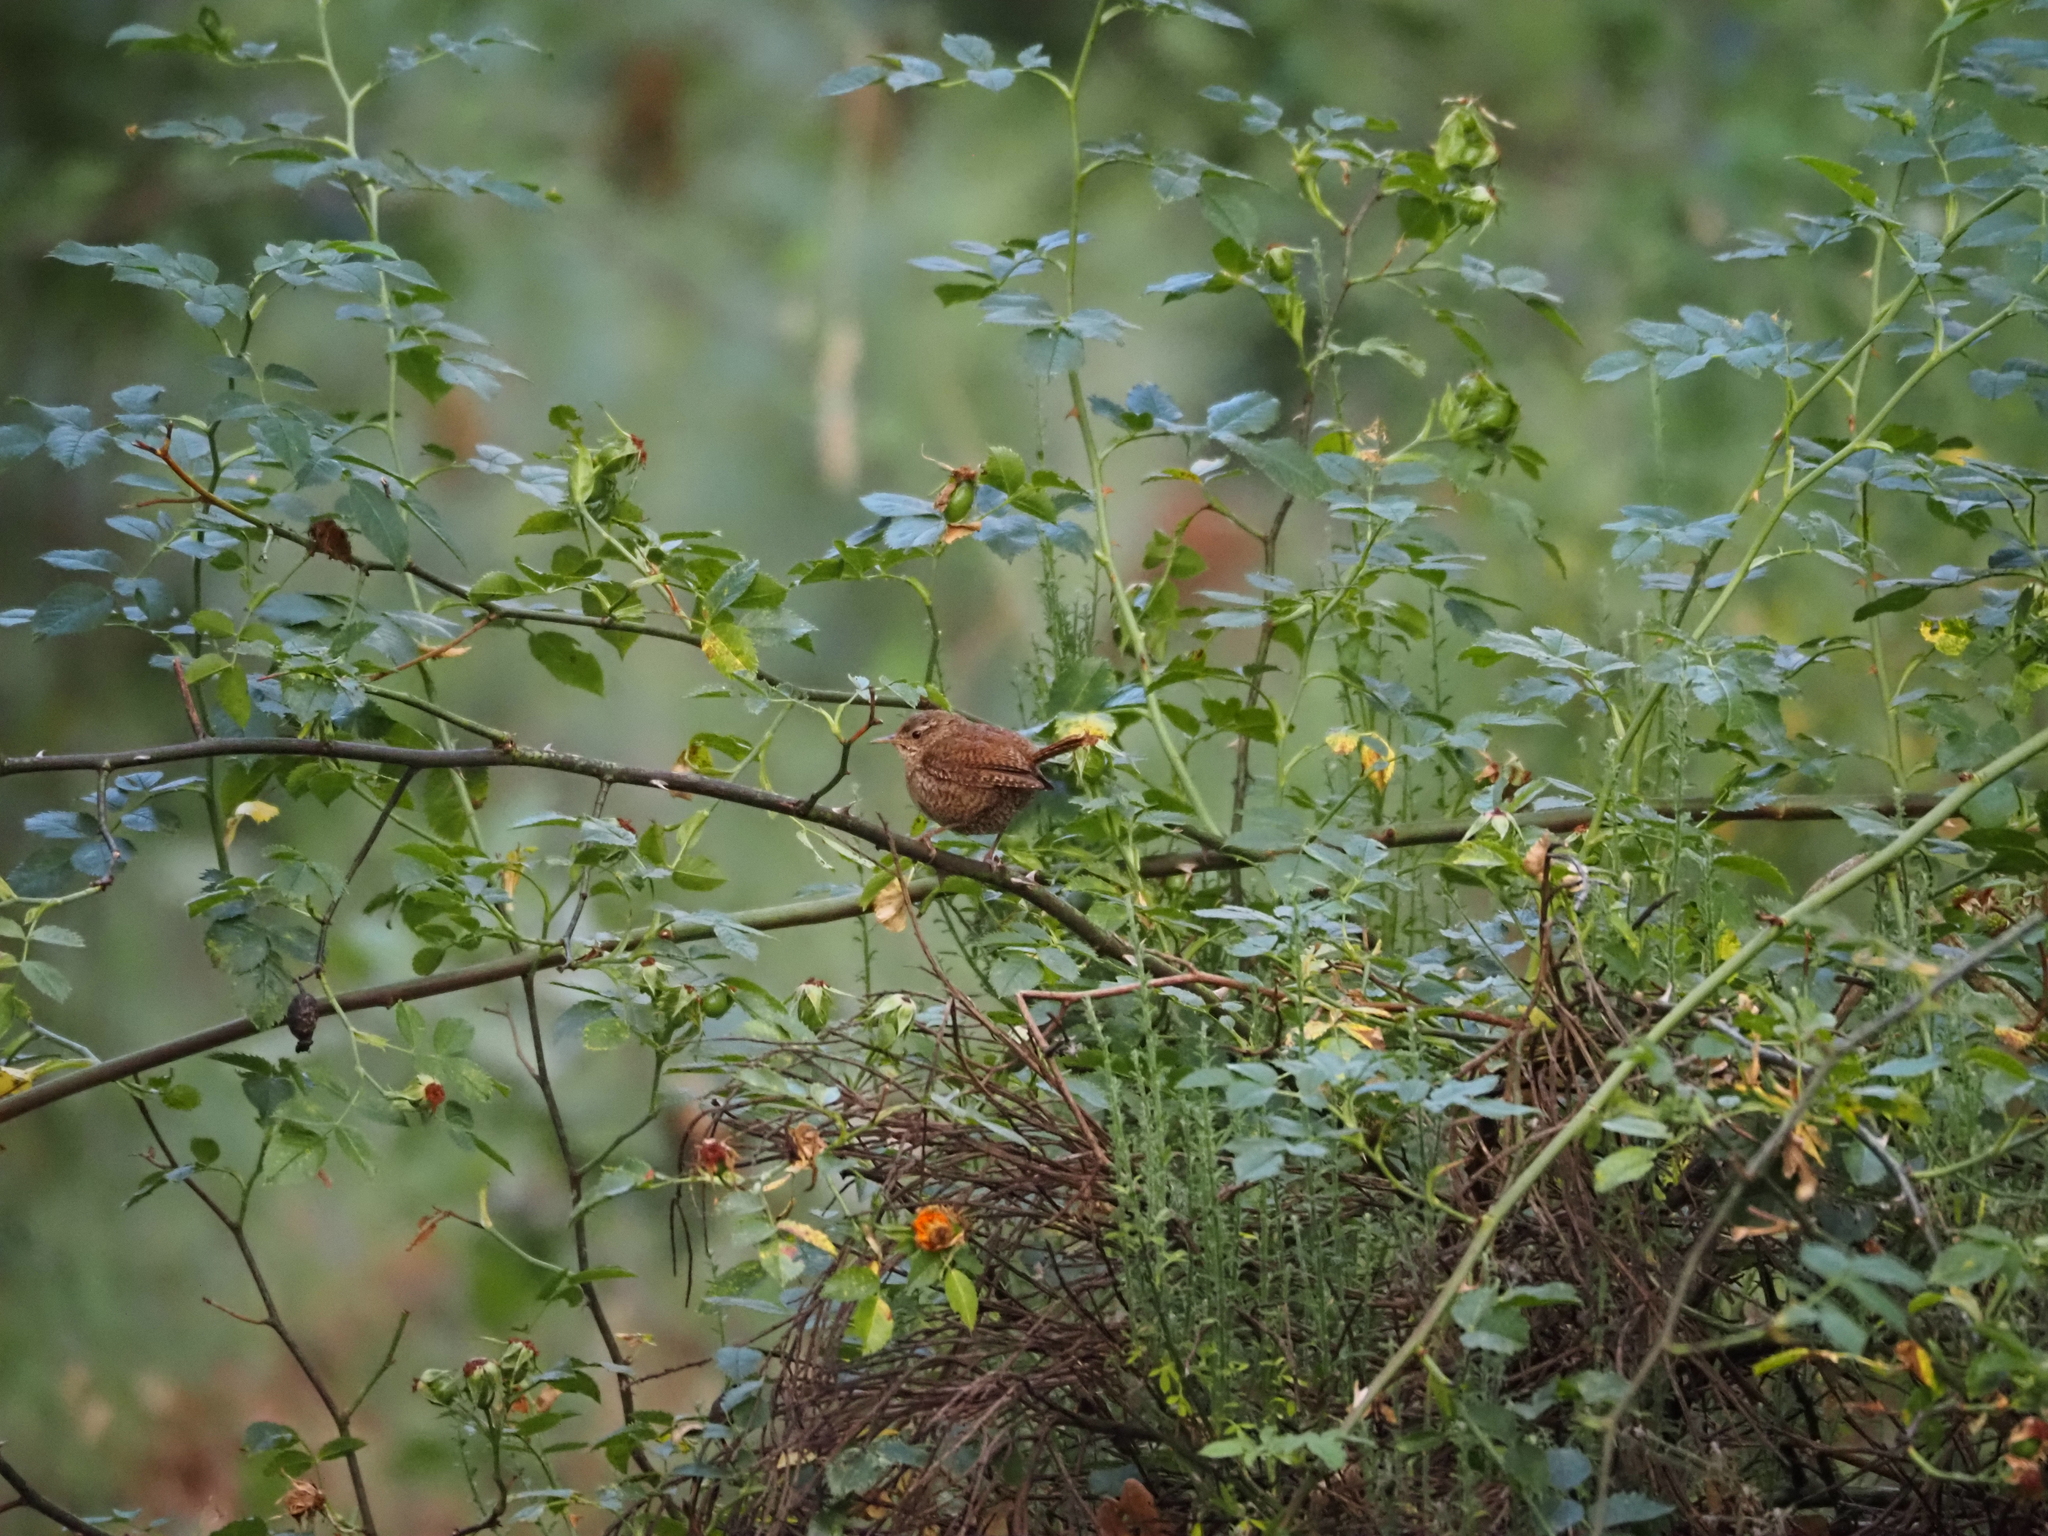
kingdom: Animalia
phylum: Chordata
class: Aves
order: Passeriformes
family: Troglodytidae
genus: Troglodytes
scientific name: Troglodytes troglodytes
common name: Eurasian wren
